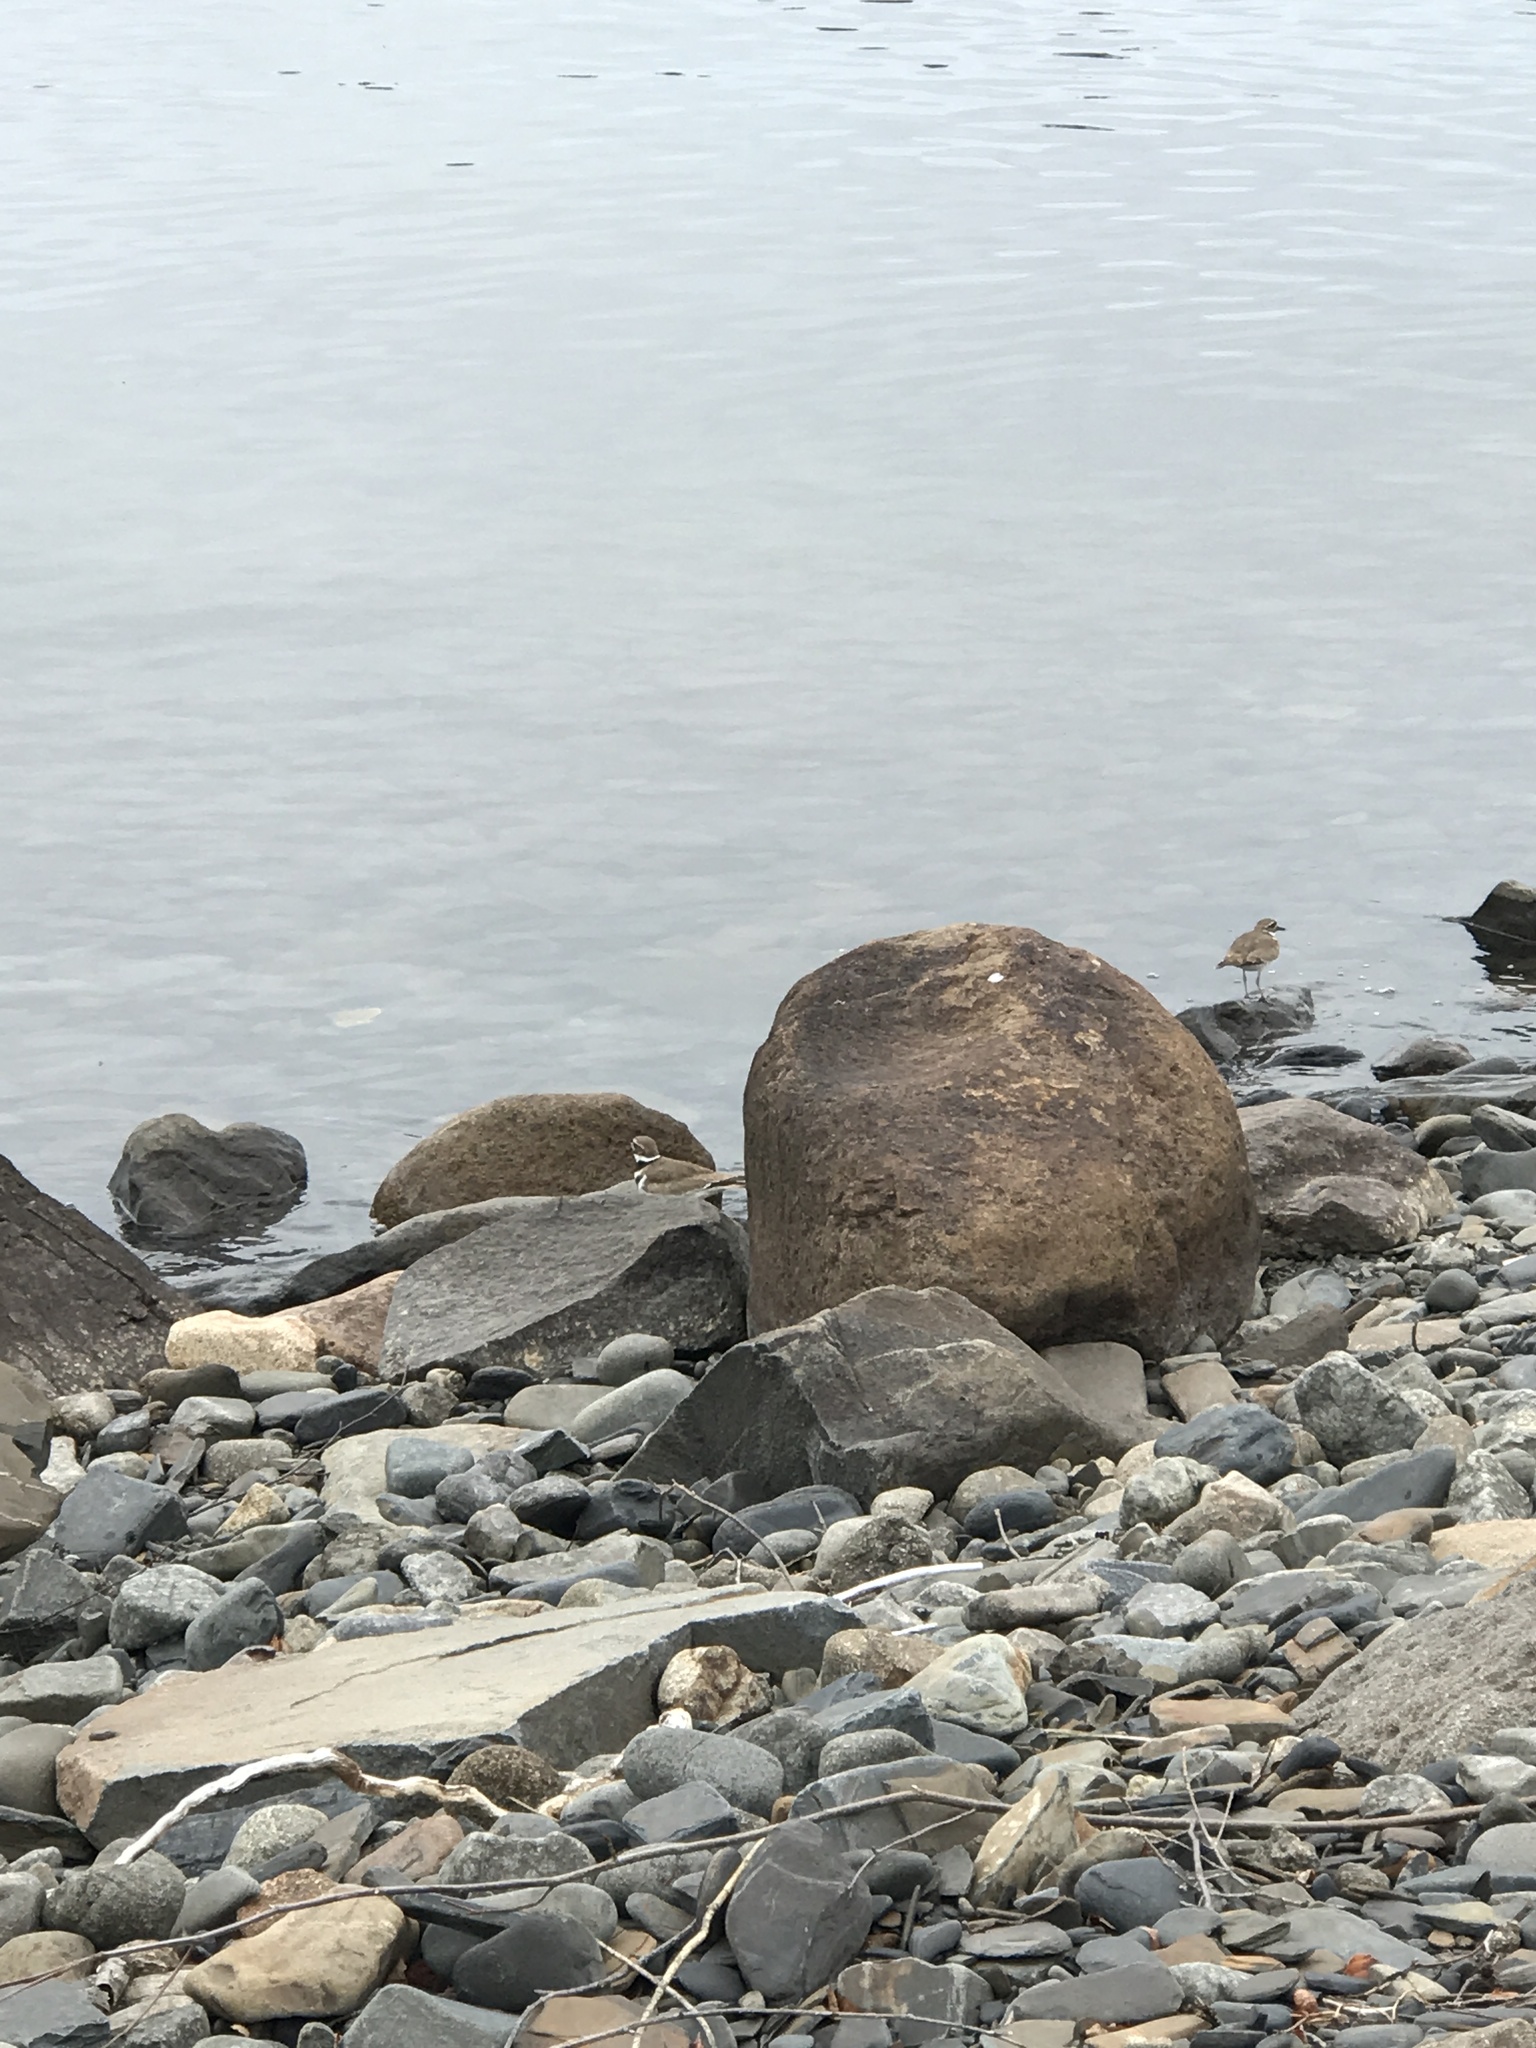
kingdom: Animalia
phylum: Chordata
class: Aves
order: Charadriiformes
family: Charadriidae
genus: Charadrius
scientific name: Charadrius vociferus
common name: Killdeer
